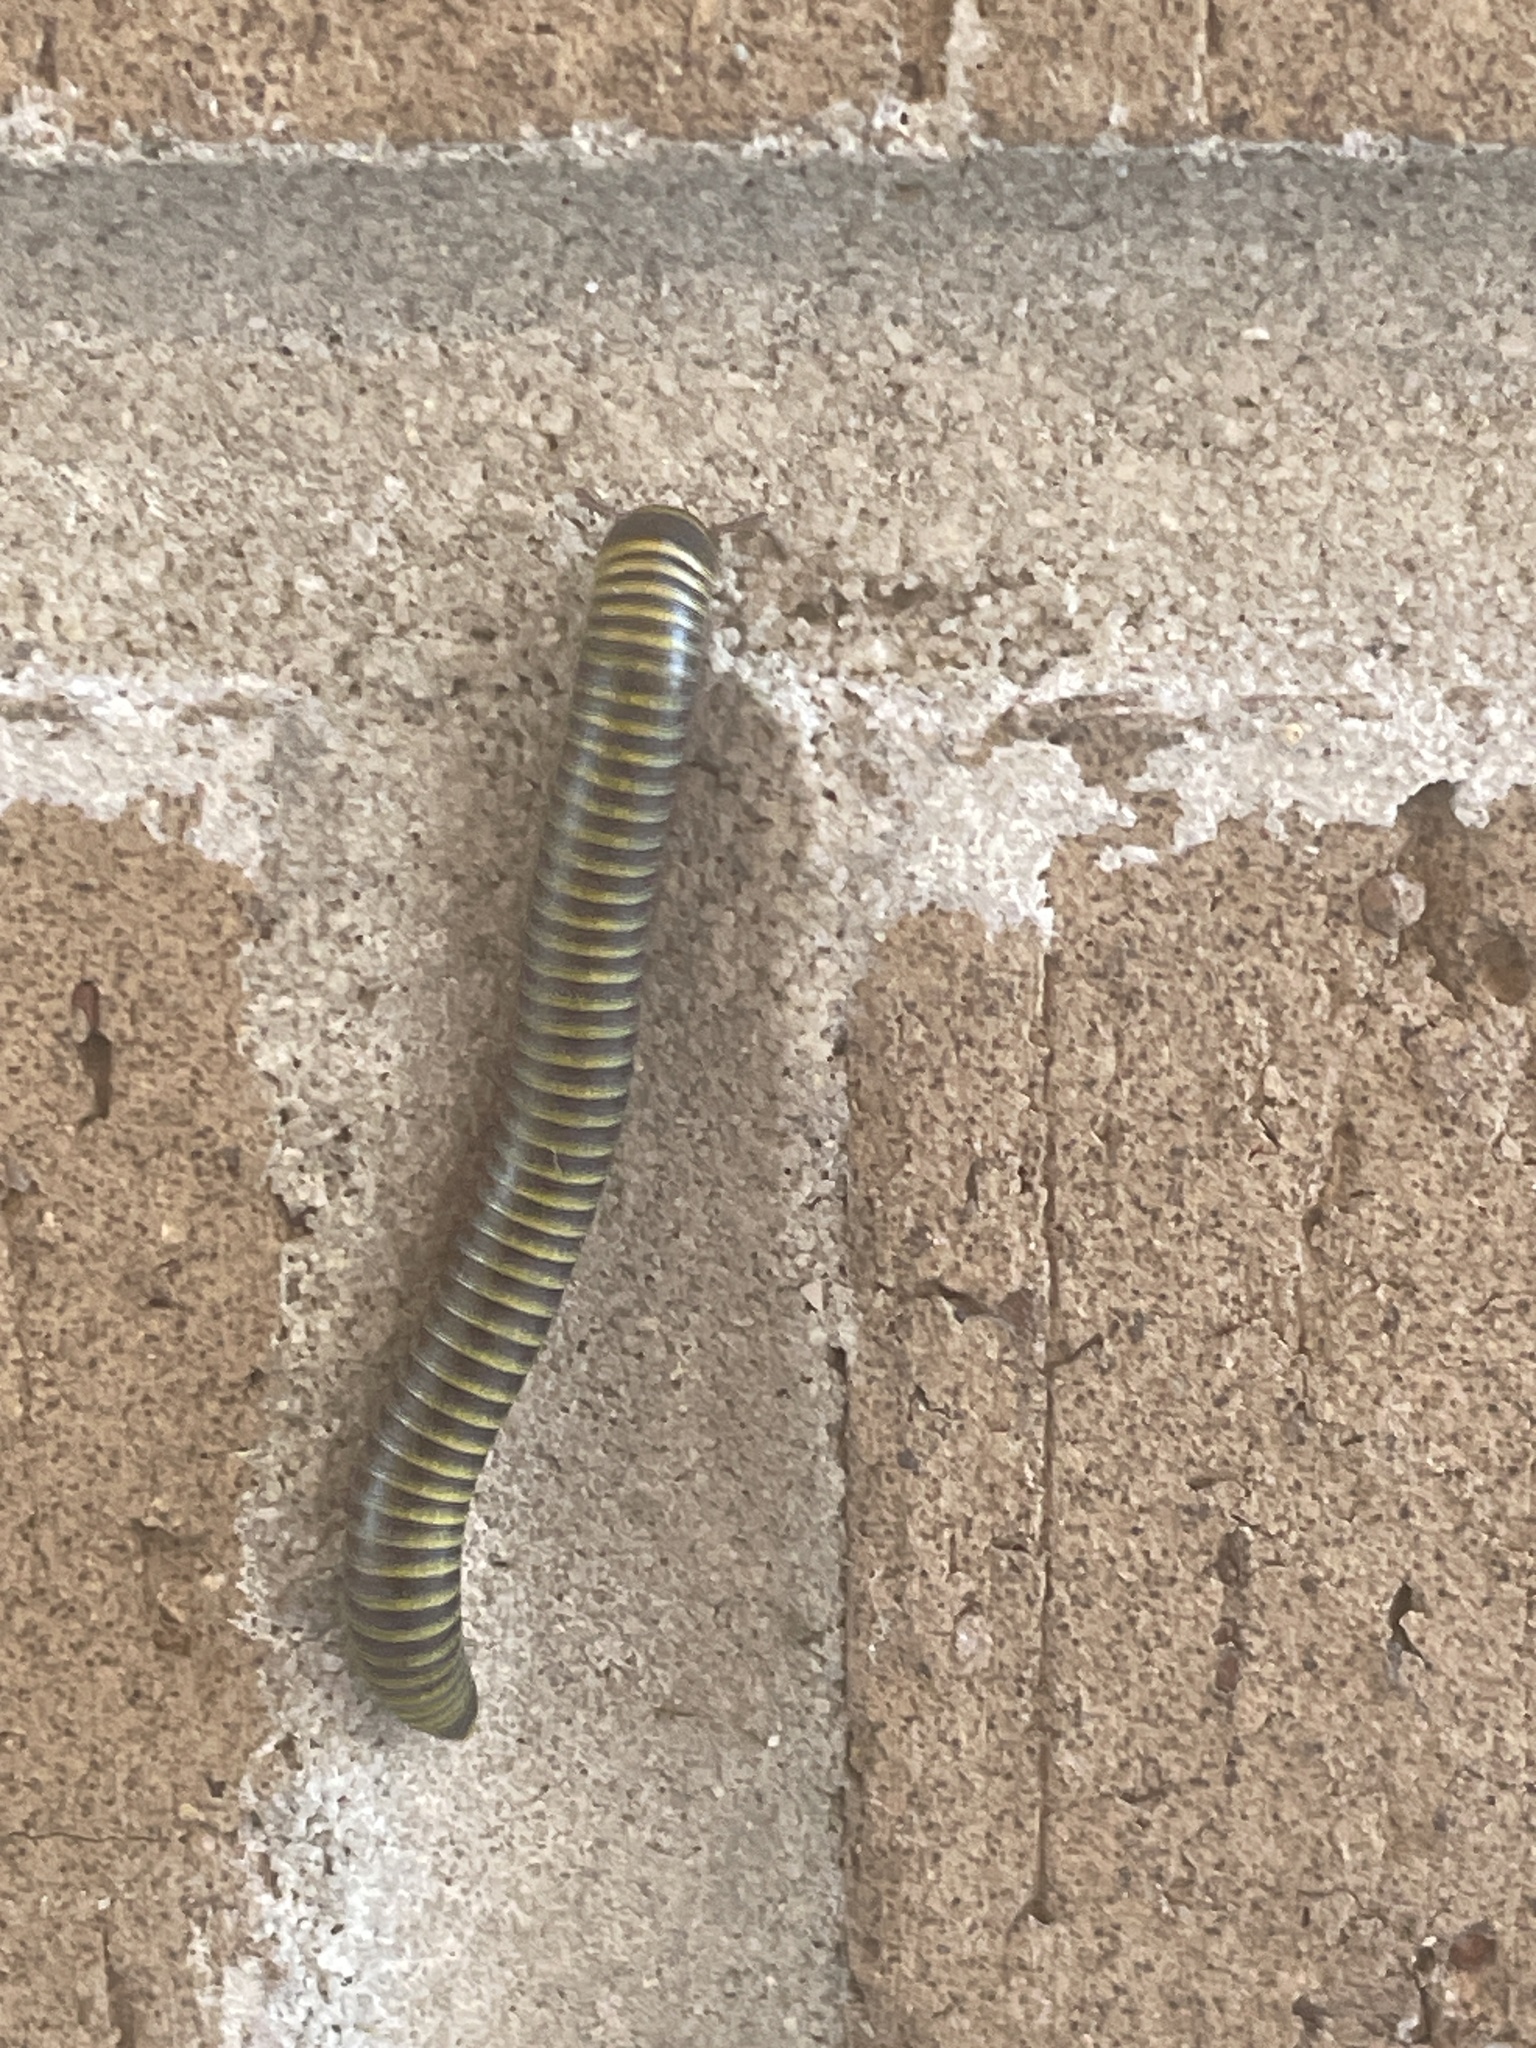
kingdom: Animalia
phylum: Arthropoda
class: Diplopoda
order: Spirobolida
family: Rhinocricidae
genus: Anadenobolus
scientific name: Anadenobolus monilicornis
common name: Caribbean millipede
